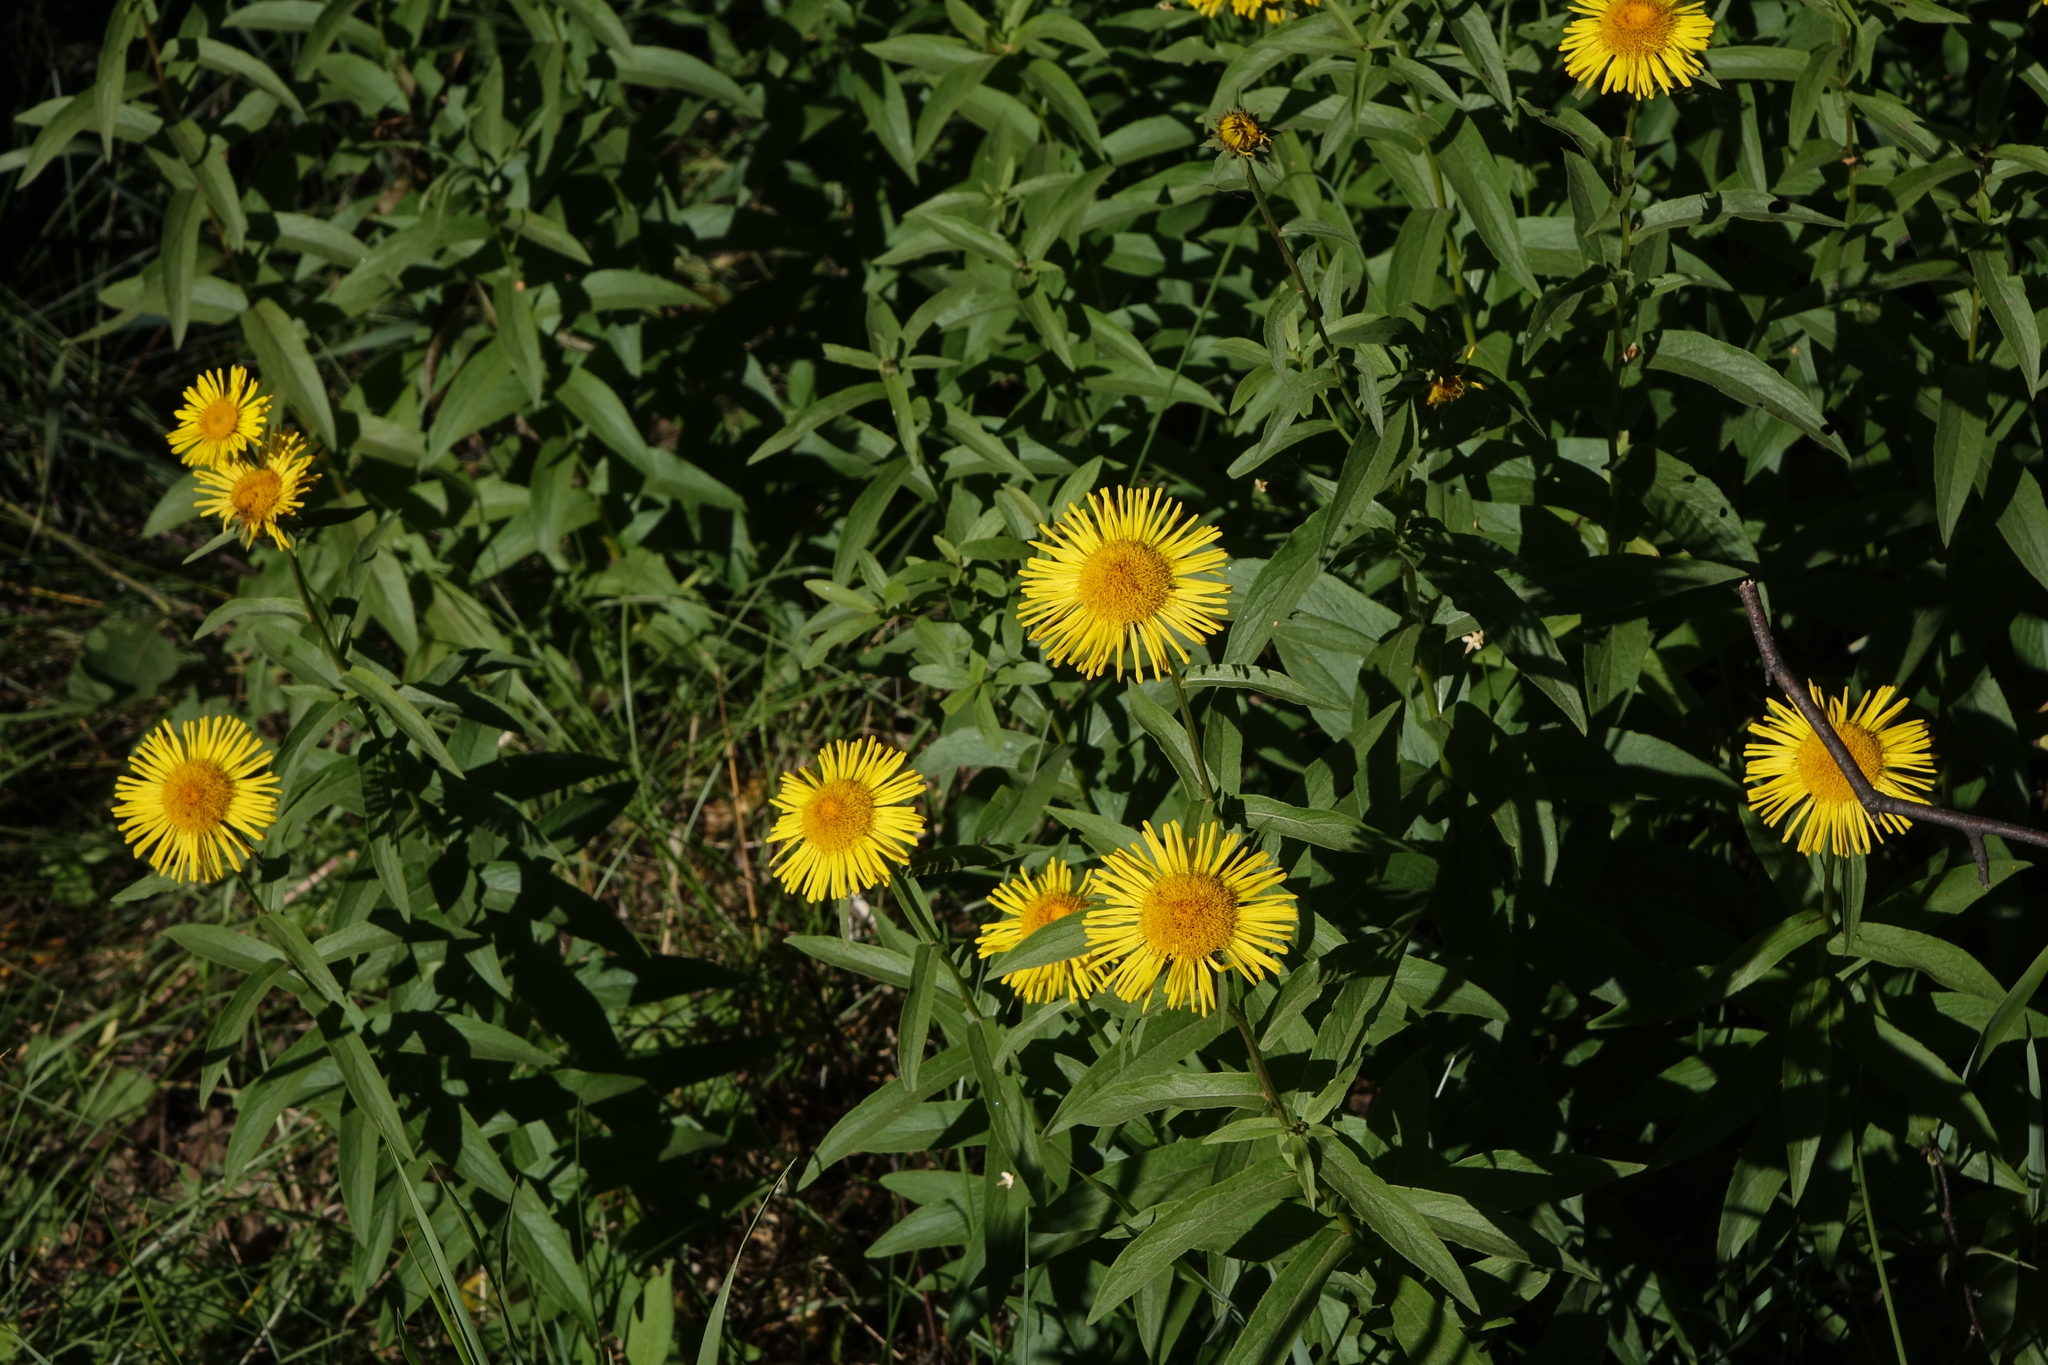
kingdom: Plantae
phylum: Tracheophyta
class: Magnoliopsida
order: Asterales
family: Asteraceae
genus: Pentanema
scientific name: Pentanema salicinum
